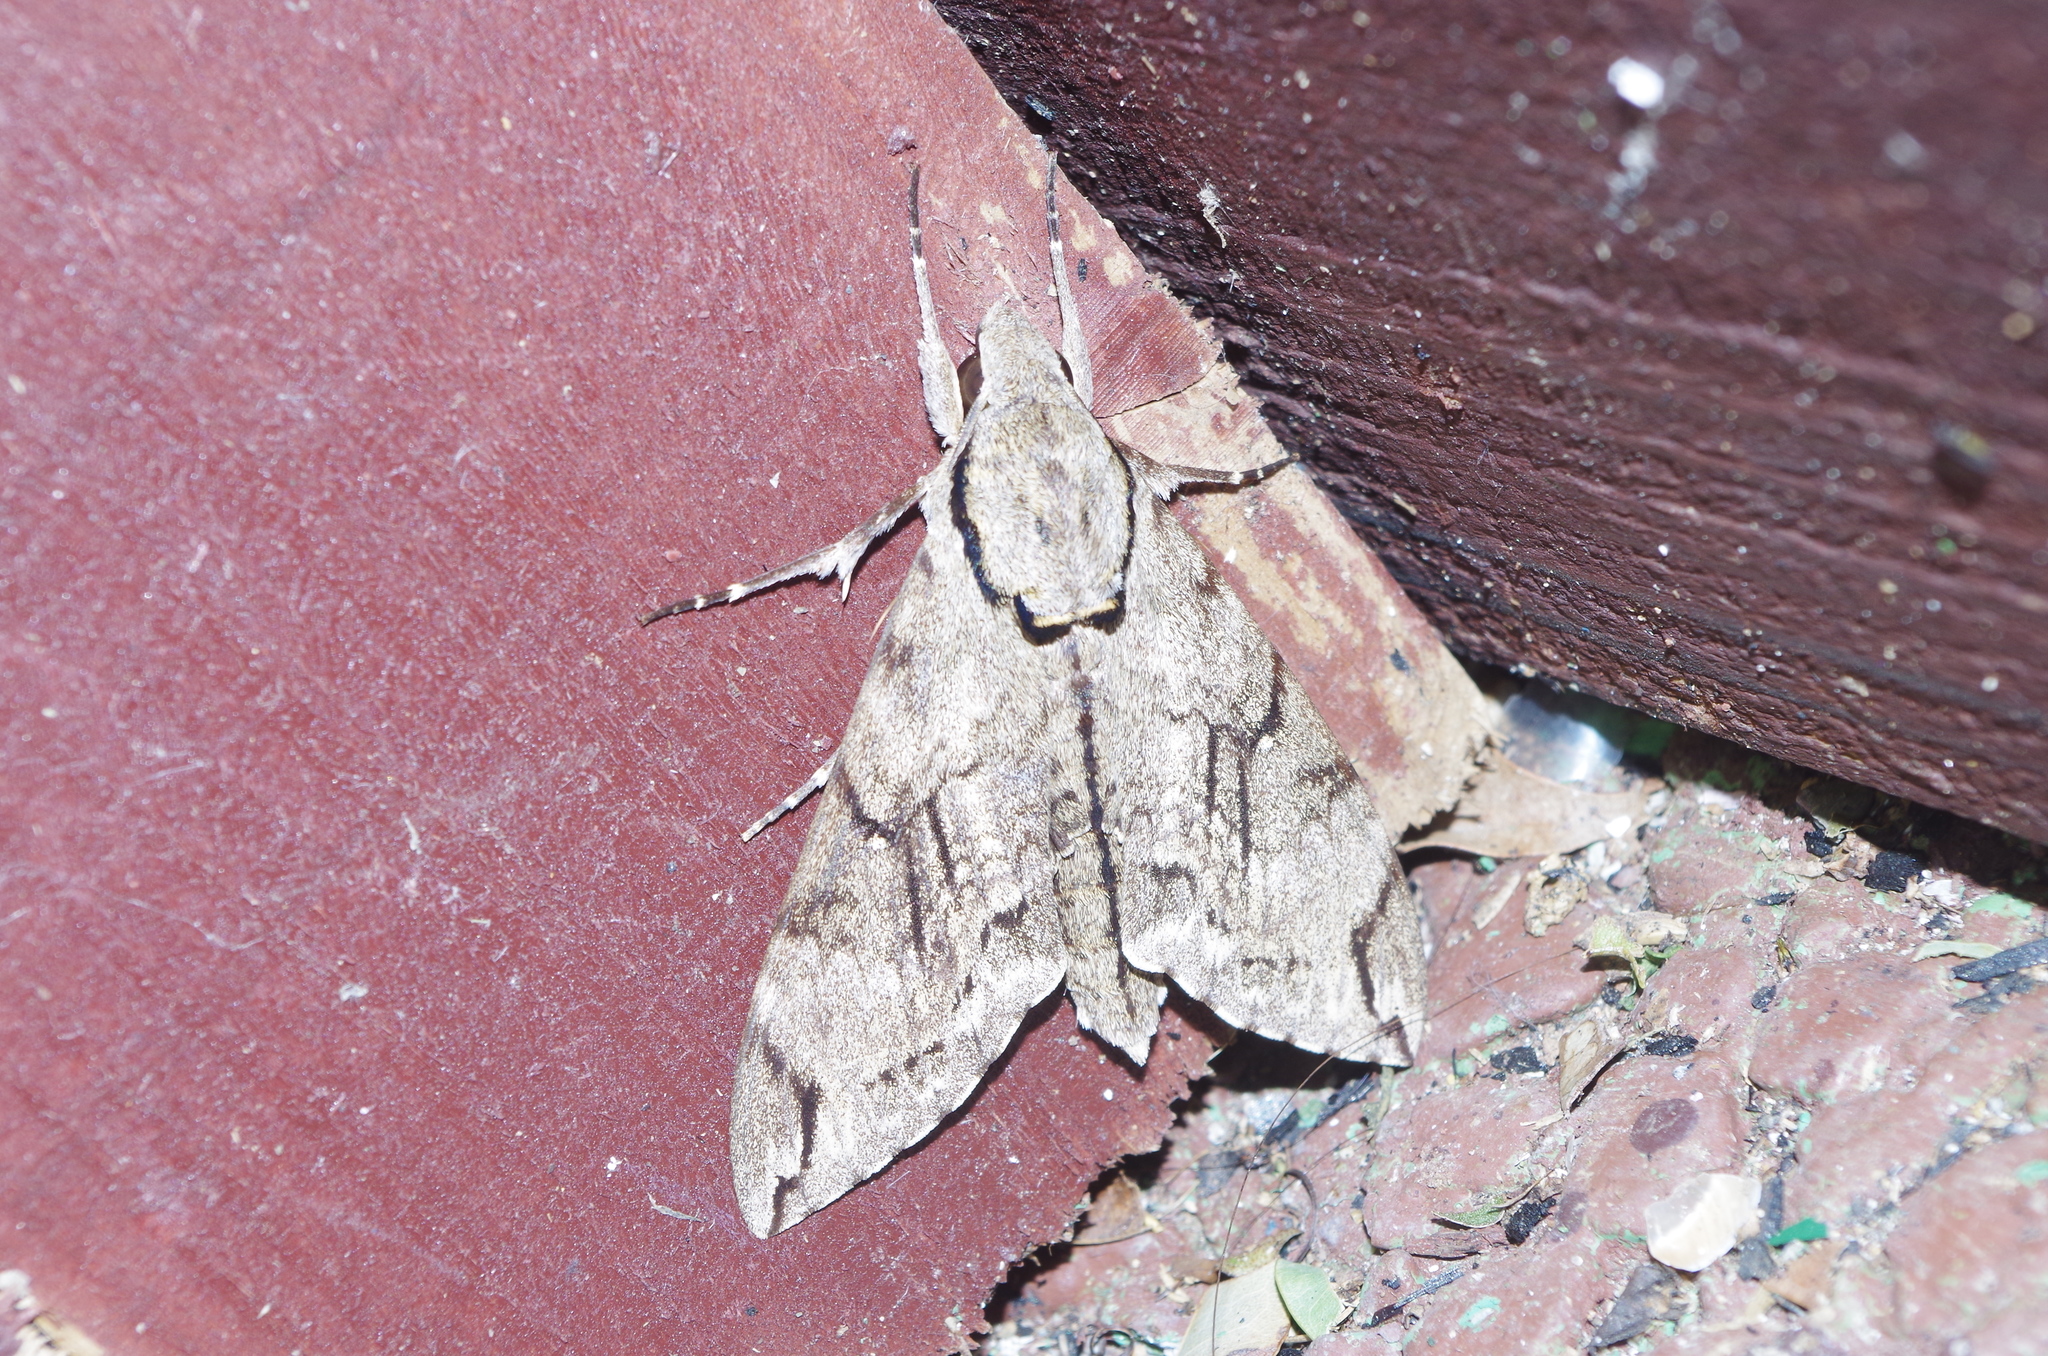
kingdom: Animalia
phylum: Arthropoda
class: Insecta
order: Lepidoptera
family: Sphingidae
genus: Psilogramma
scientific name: Psilogramma increta
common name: Gray hawk moth
